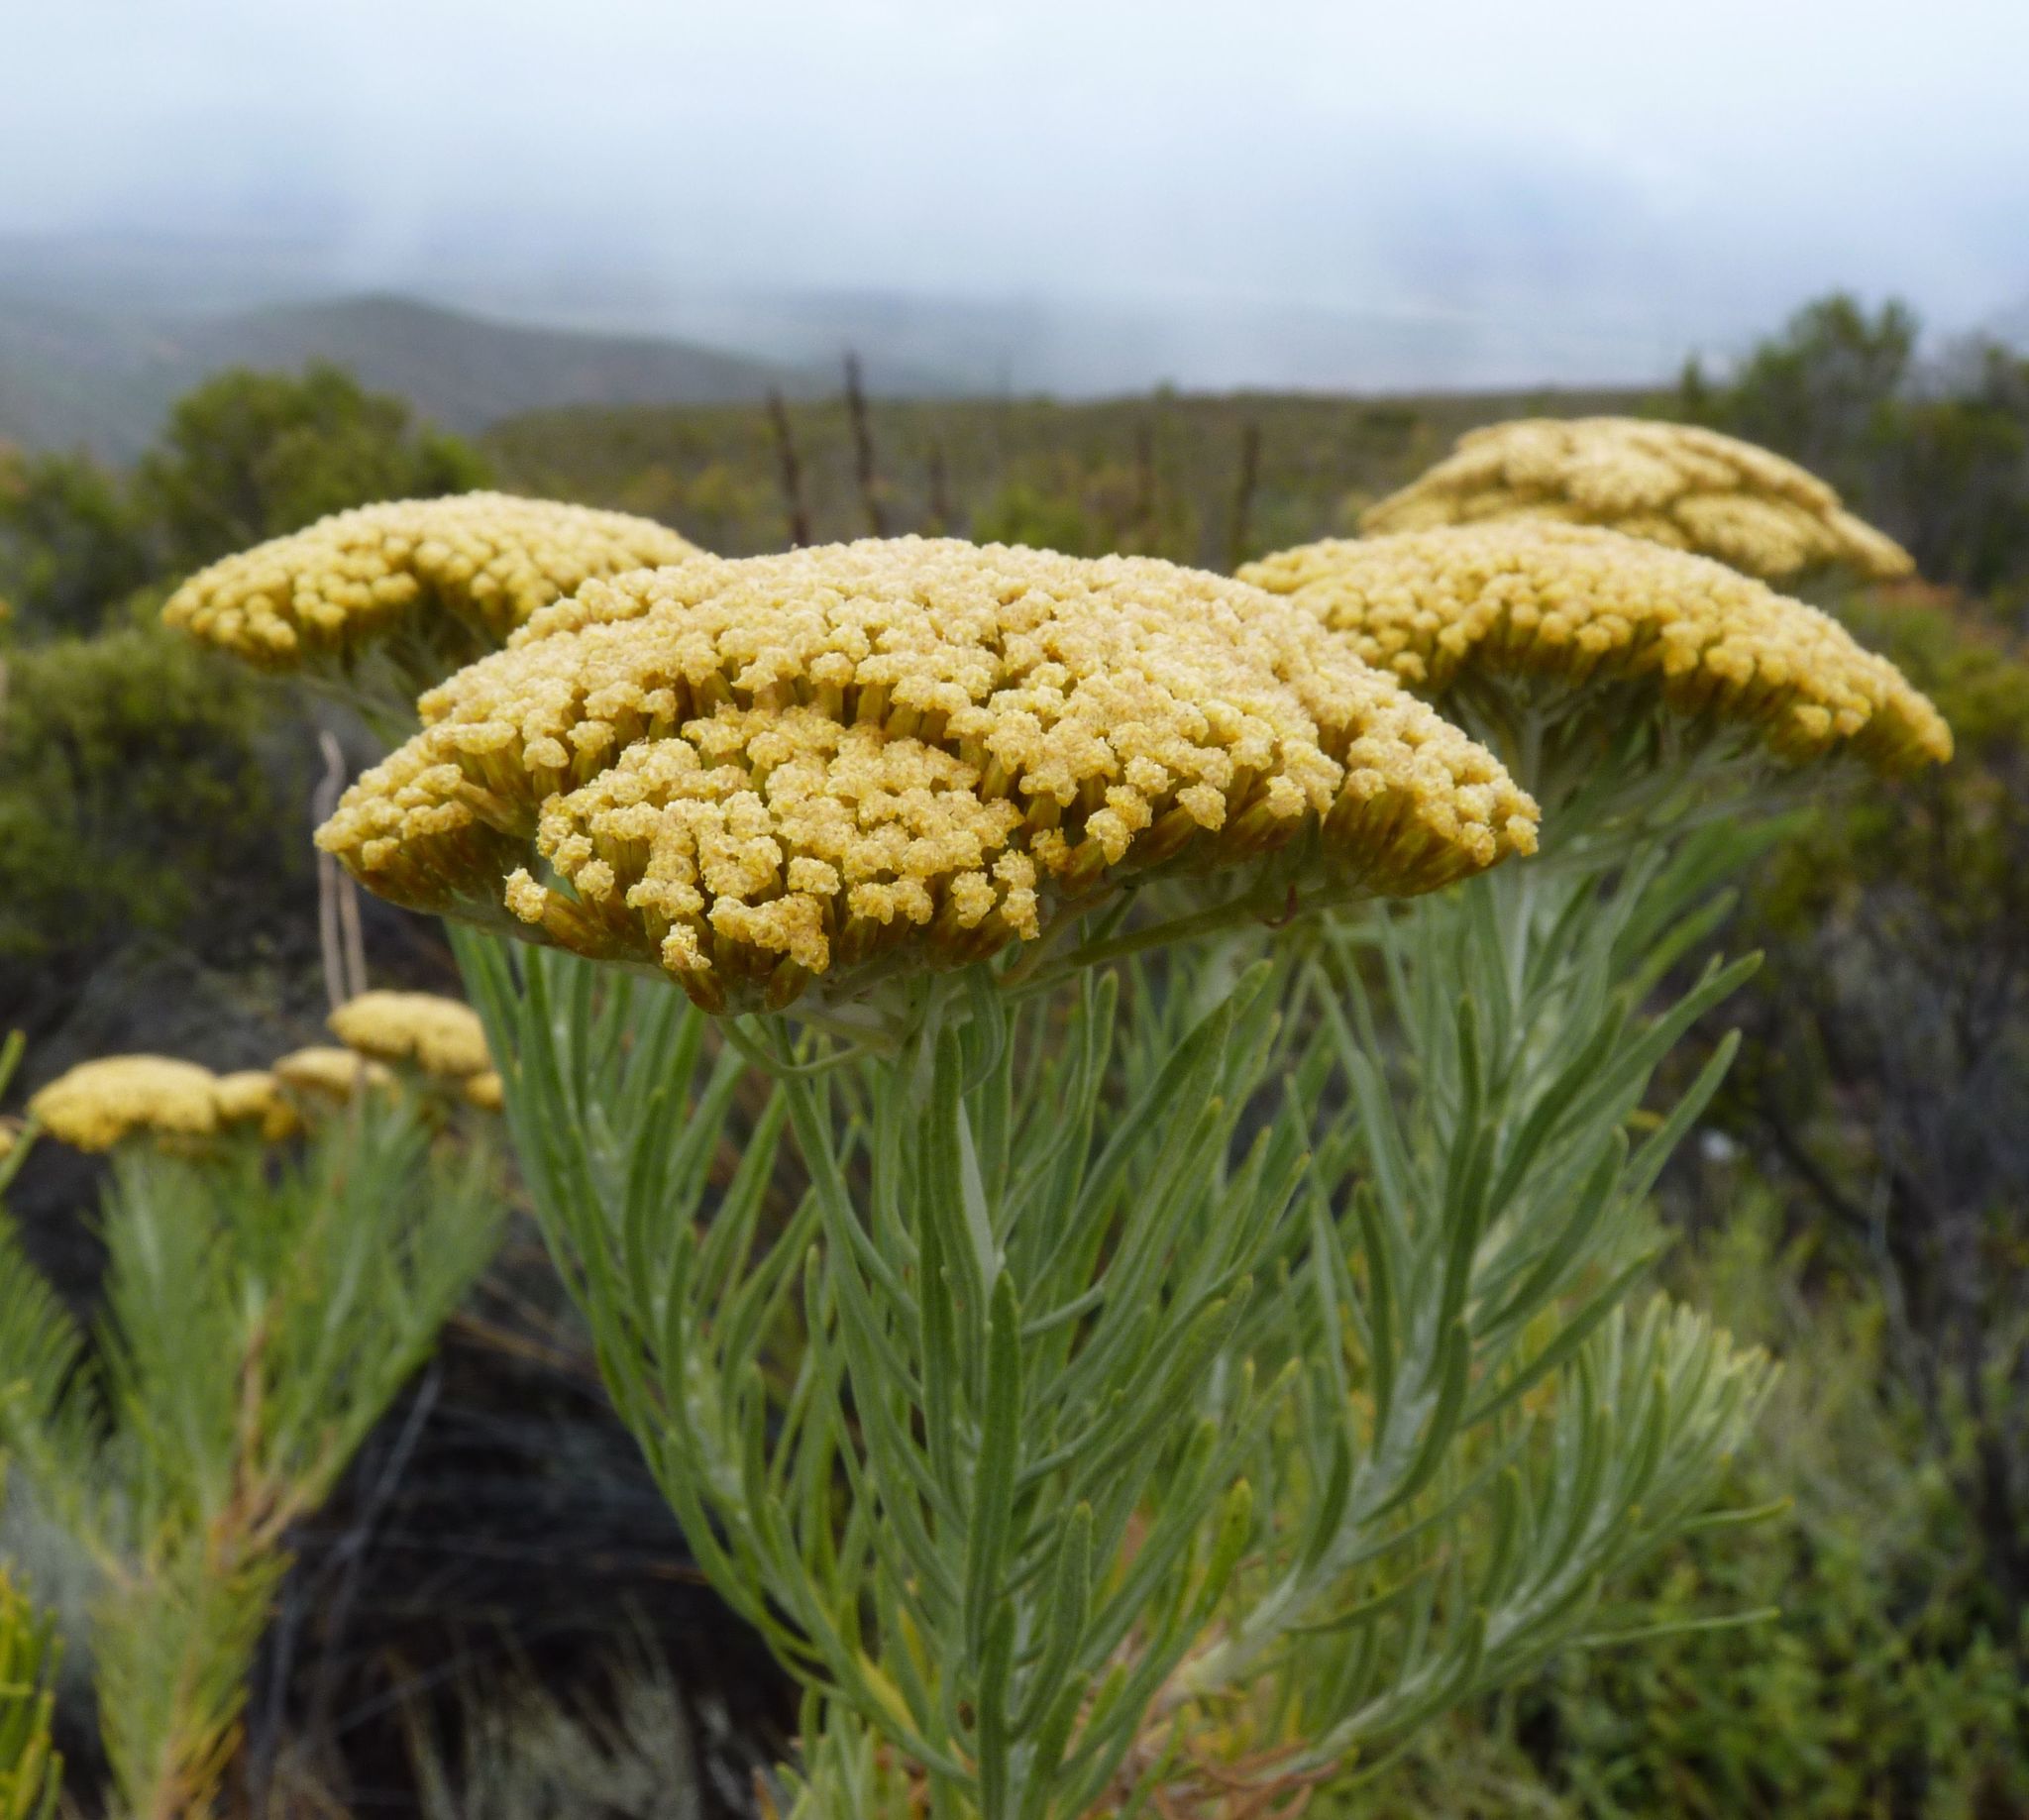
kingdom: Plantae
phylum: Tracheophyta
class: Magnoliopsida
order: Asterales
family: Asteraceae
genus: Athanasia
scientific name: Athanasia tomentosa
